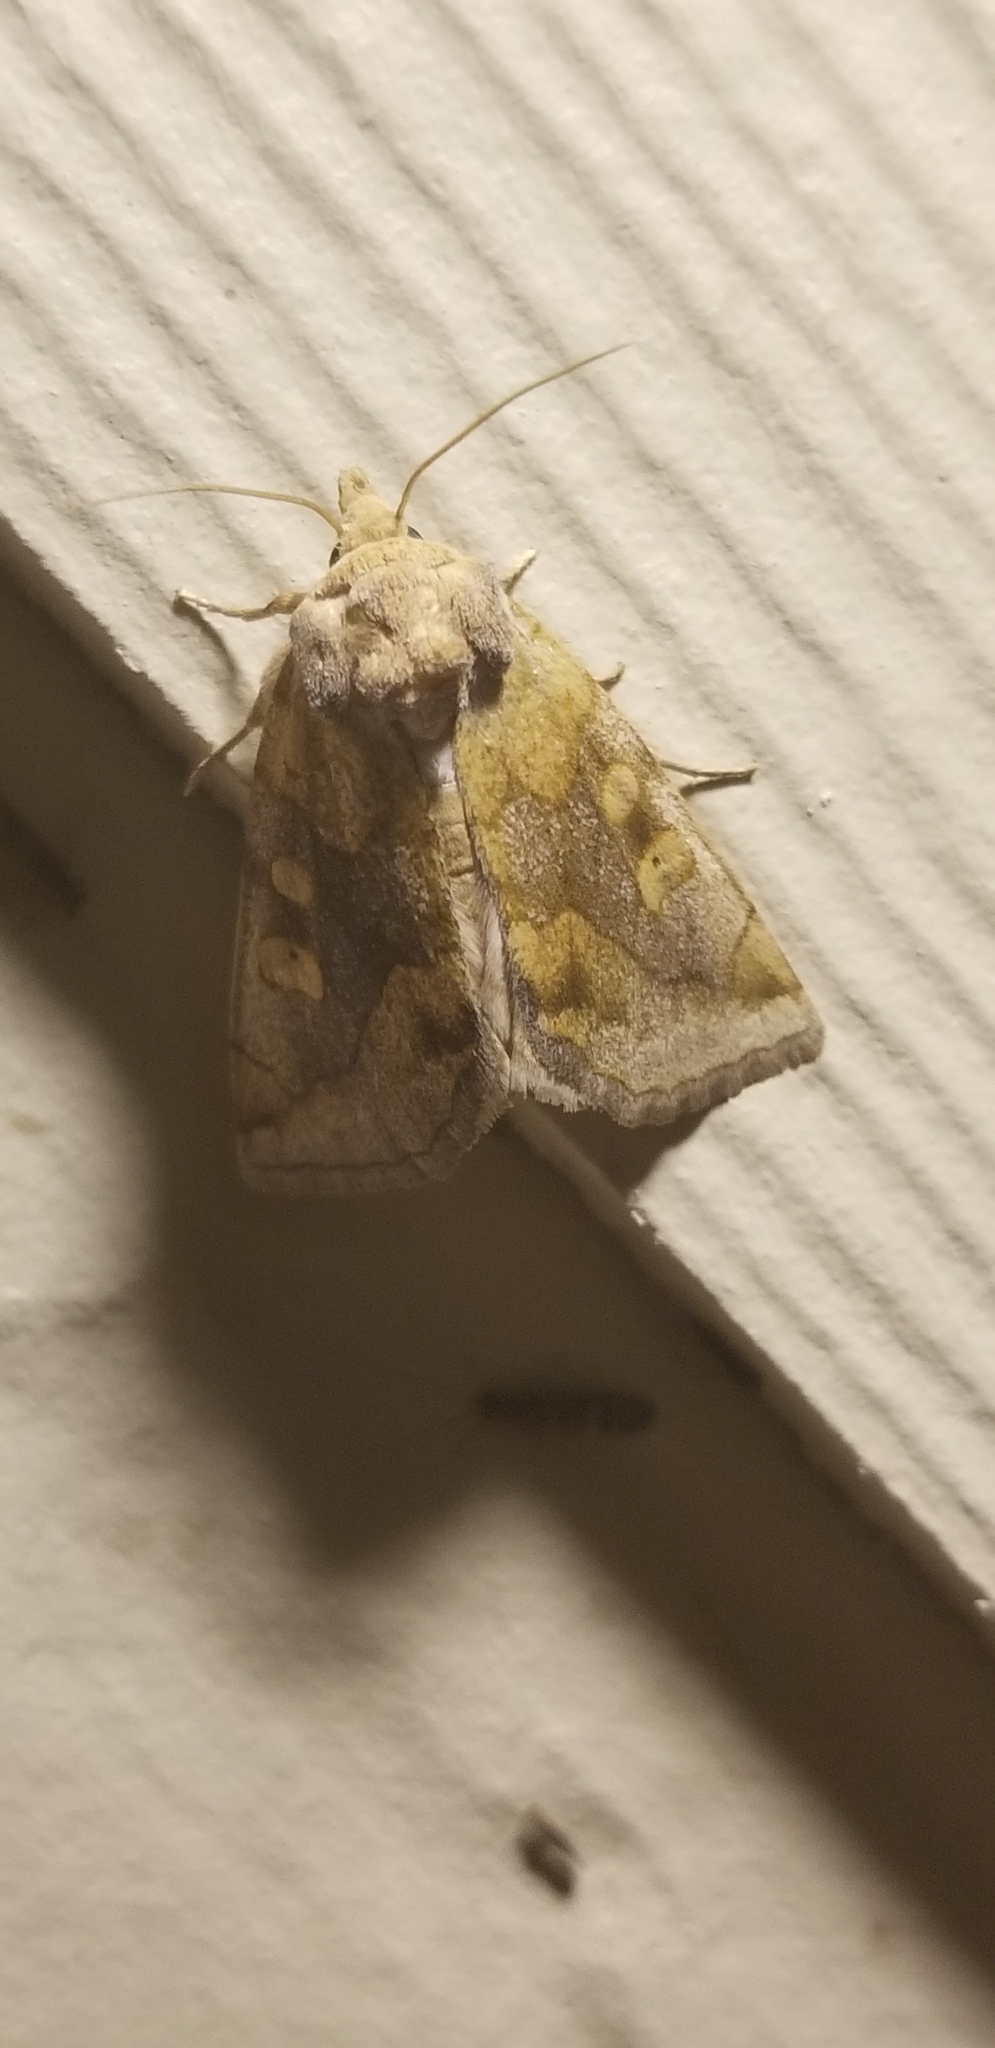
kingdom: Animalia
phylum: Arthropoda
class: Insecta
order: Lepidoptera
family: Noctuidae
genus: Basilodes
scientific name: Basilodes chrysopis
